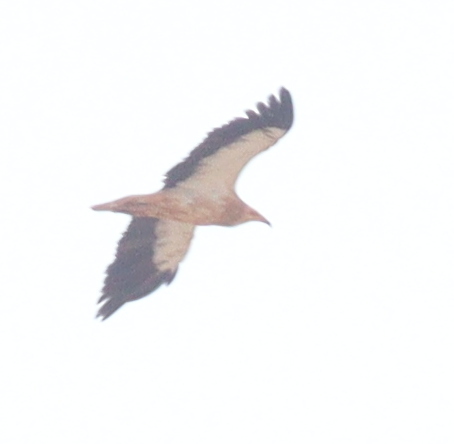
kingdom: Animalia
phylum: Chordata
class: Aves
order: Accipitriformes
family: Accipitridae
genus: Neophron
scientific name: Neophron percnopterus
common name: Egyptian vulture
